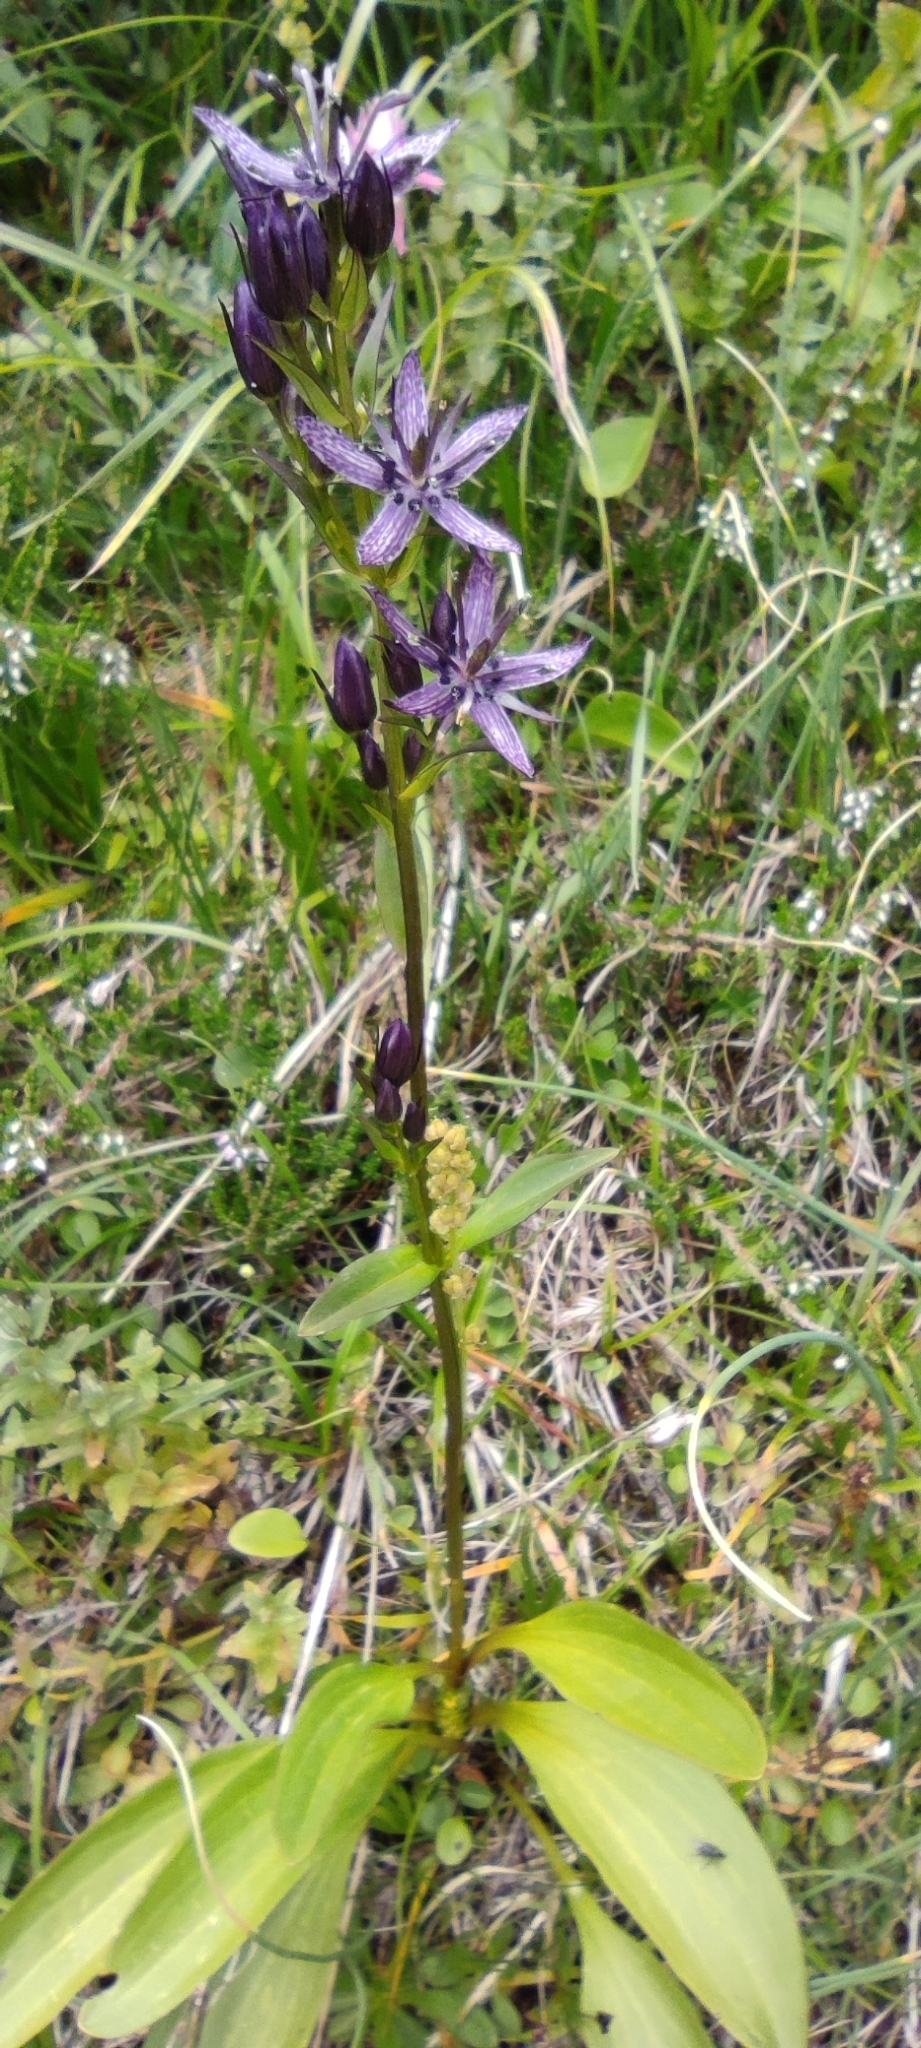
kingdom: Plantae
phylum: Tracheophyta
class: Magnoliopsida
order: Gentianales
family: Gentianaceae
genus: Swertia
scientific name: Swertia perennis
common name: Alpine bog swertia
